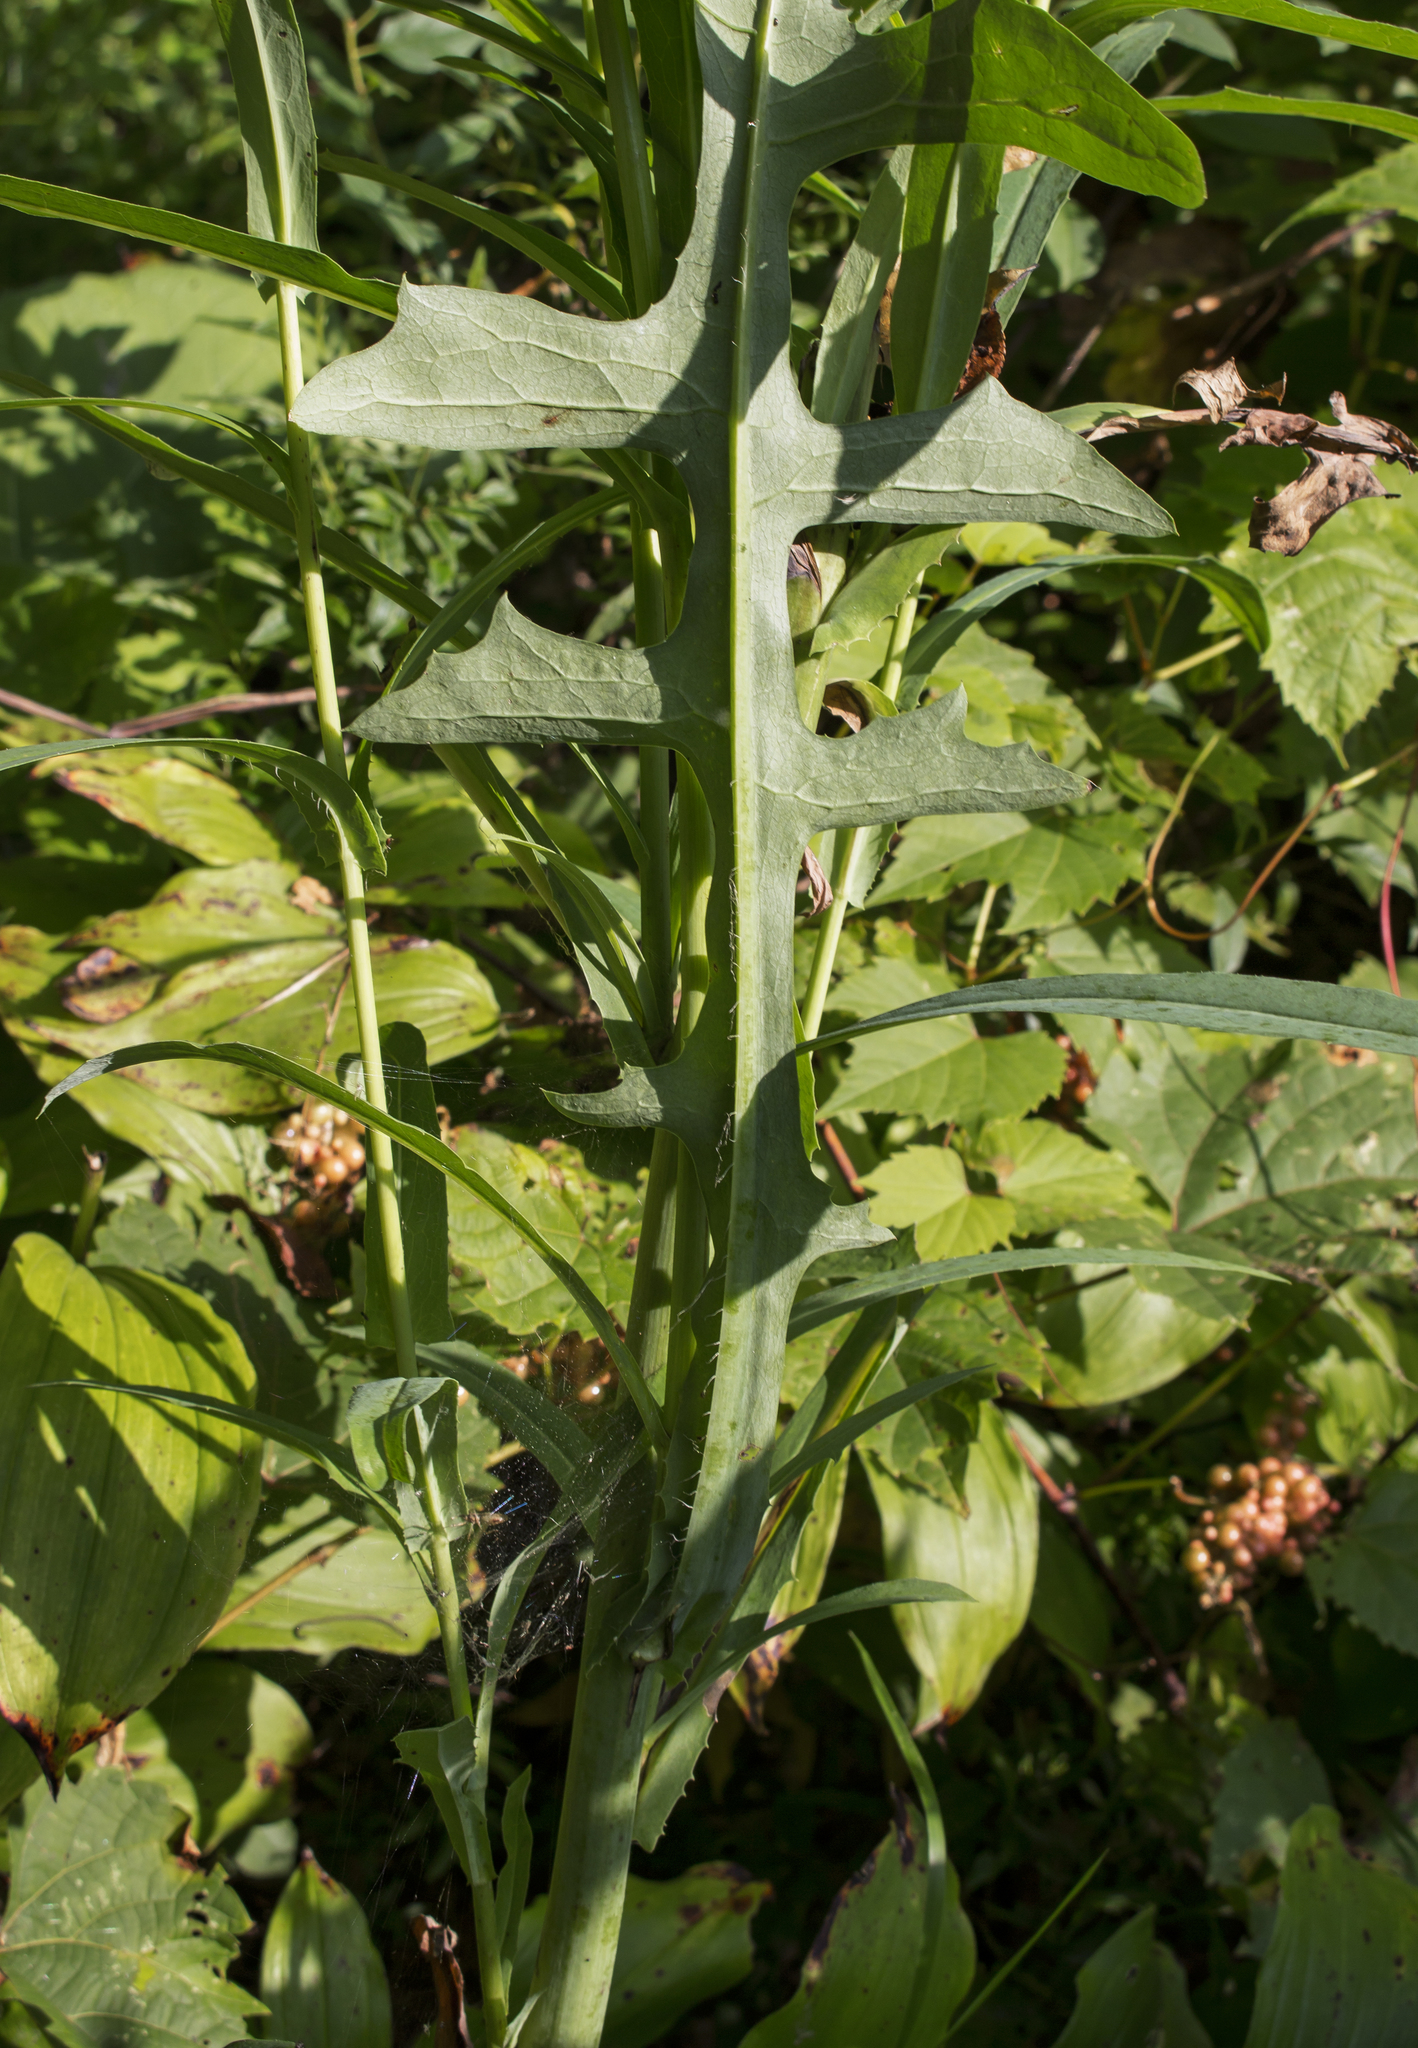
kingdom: Plantae
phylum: Tracheophyta
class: Magnoliopsida
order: Asterales
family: Asteraceae
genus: Lactuca
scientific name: Lactuca canadensis
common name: Canada lettuce
